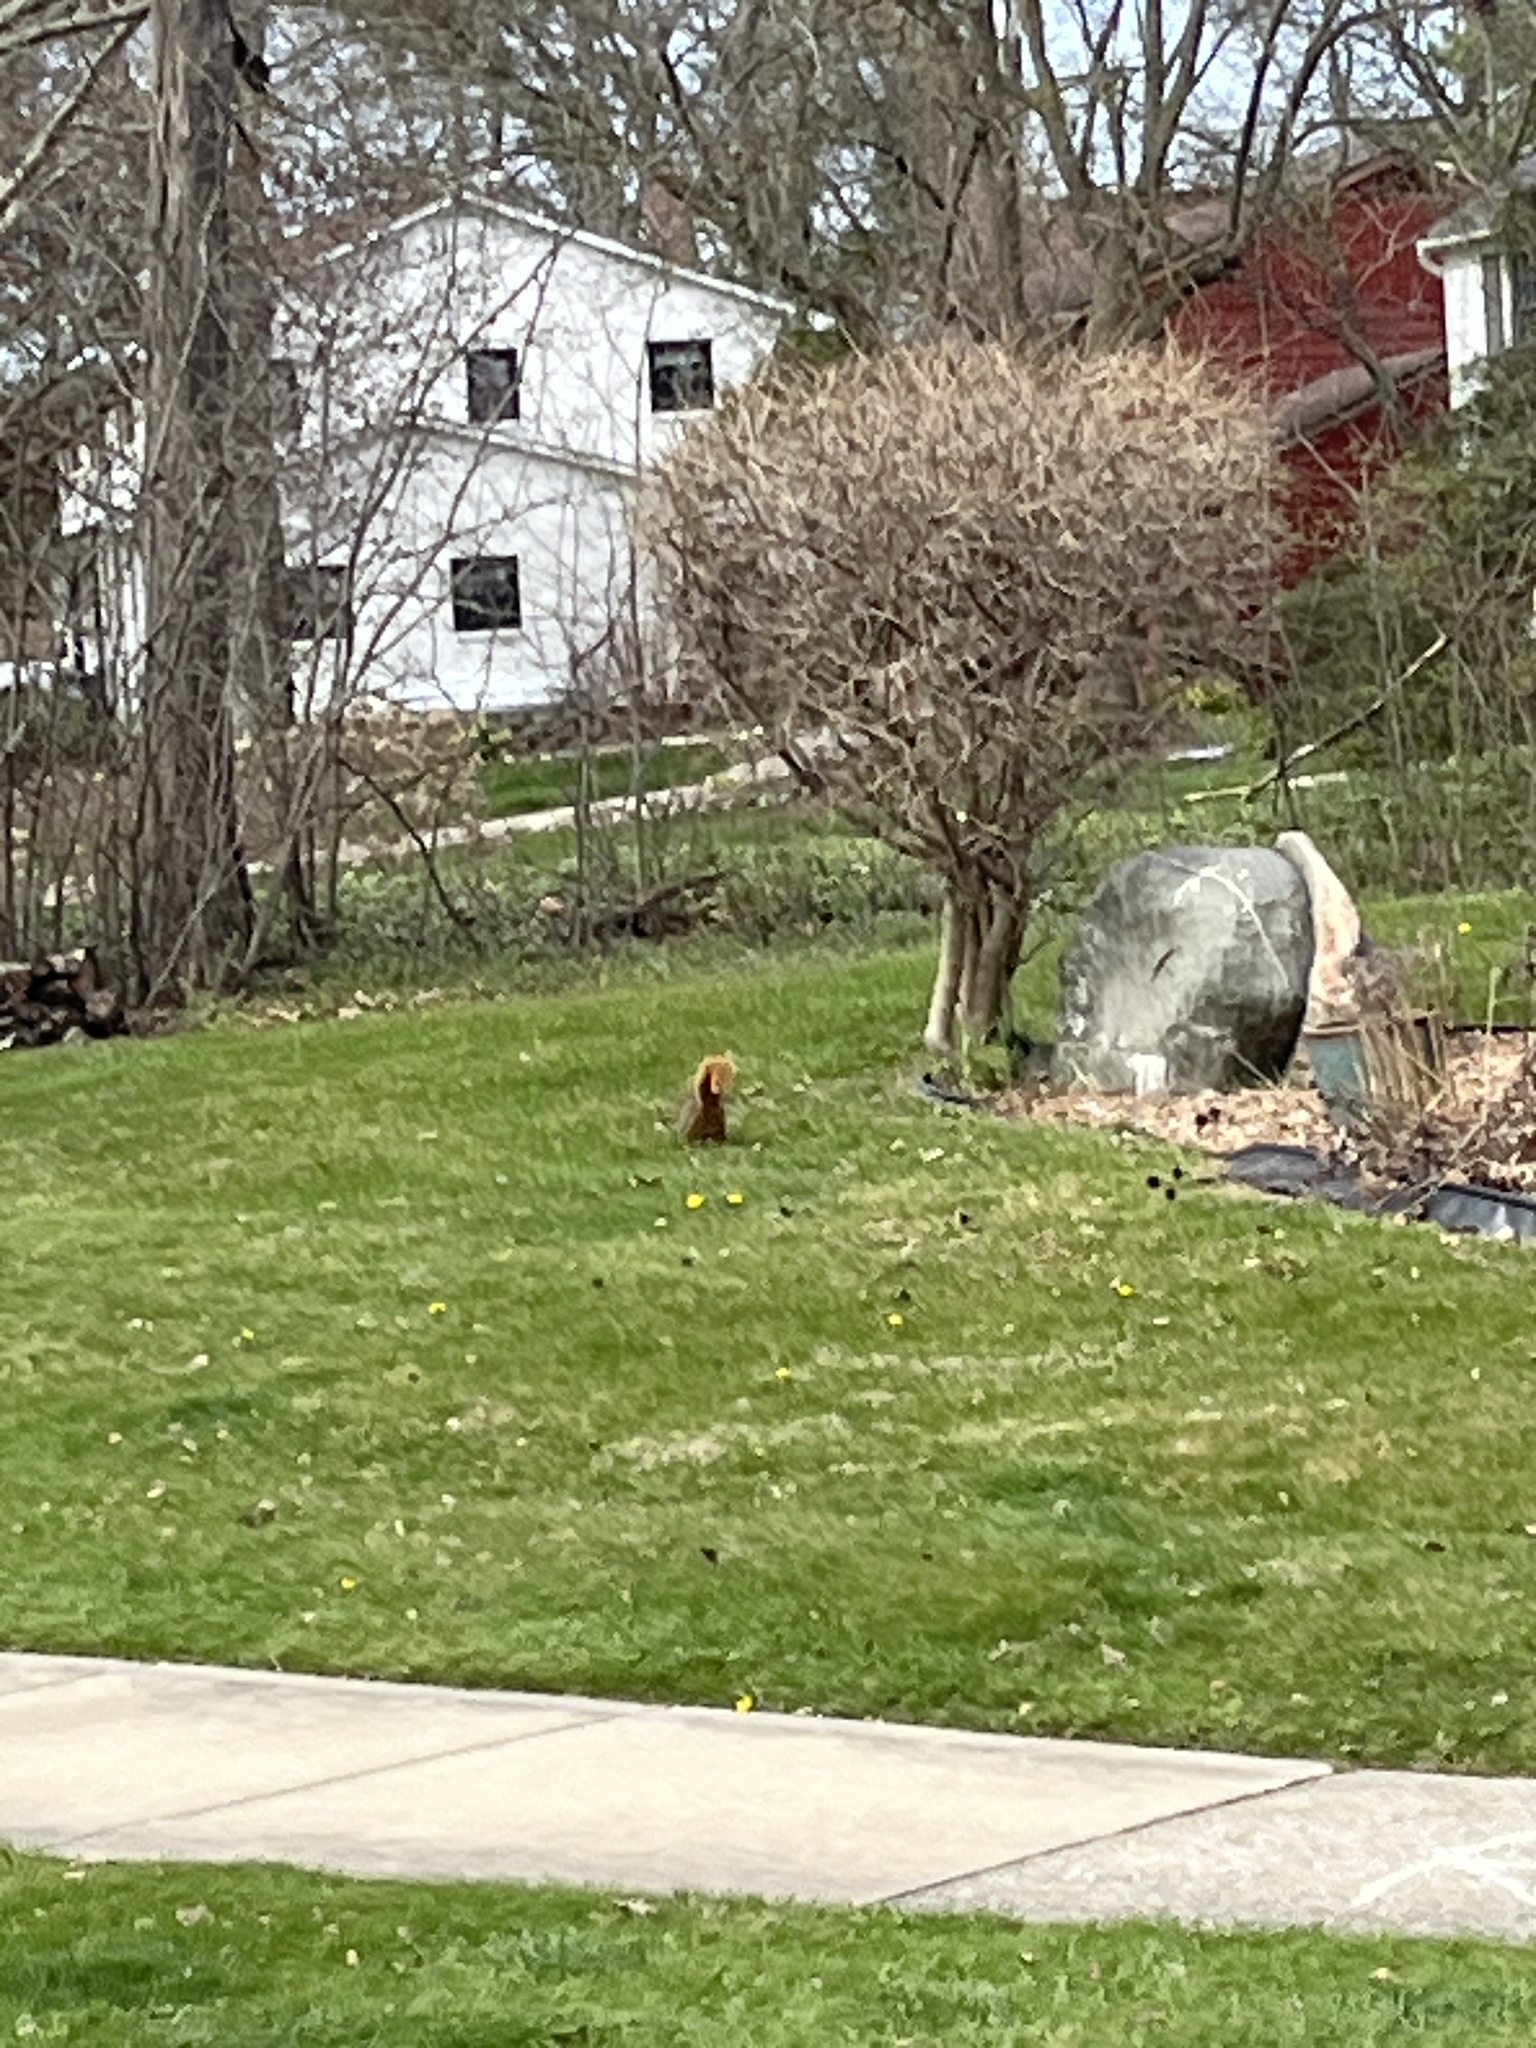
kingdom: Animalia
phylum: Chordata
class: Mammalia
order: Rodentia
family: Sciuridae
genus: Sciurus
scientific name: Sciurus niger
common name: Fox squirrel
